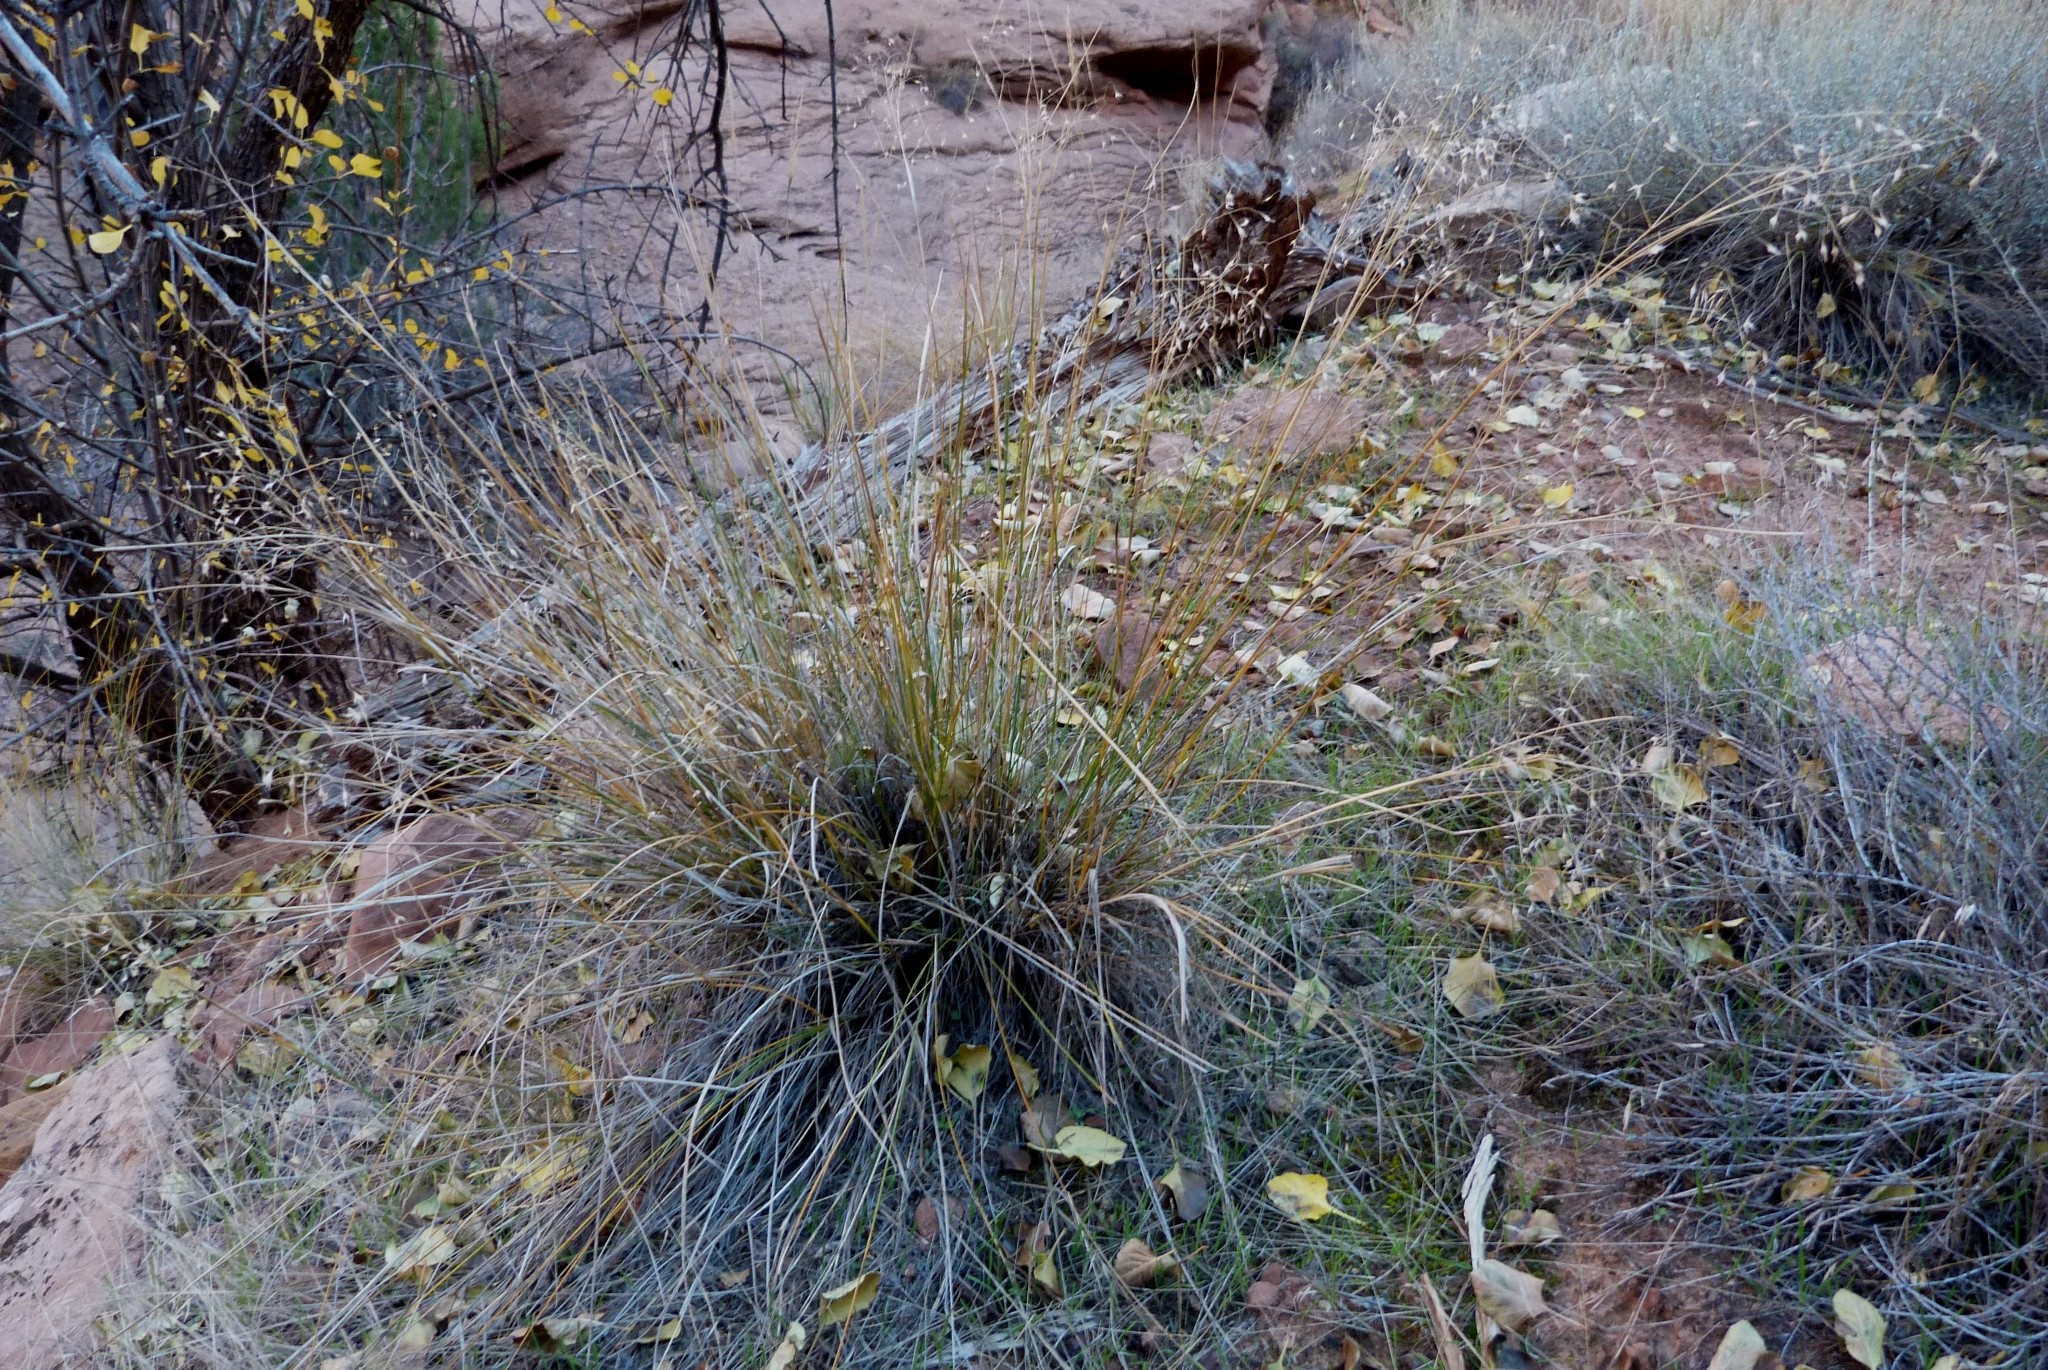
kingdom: Plantae
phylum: Tracheophyta
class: Liliopsida
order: Poales
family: Poaceae
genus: Eriocoma
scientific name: Eriocoma hymenoides
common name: Indian mountain ricegrass
